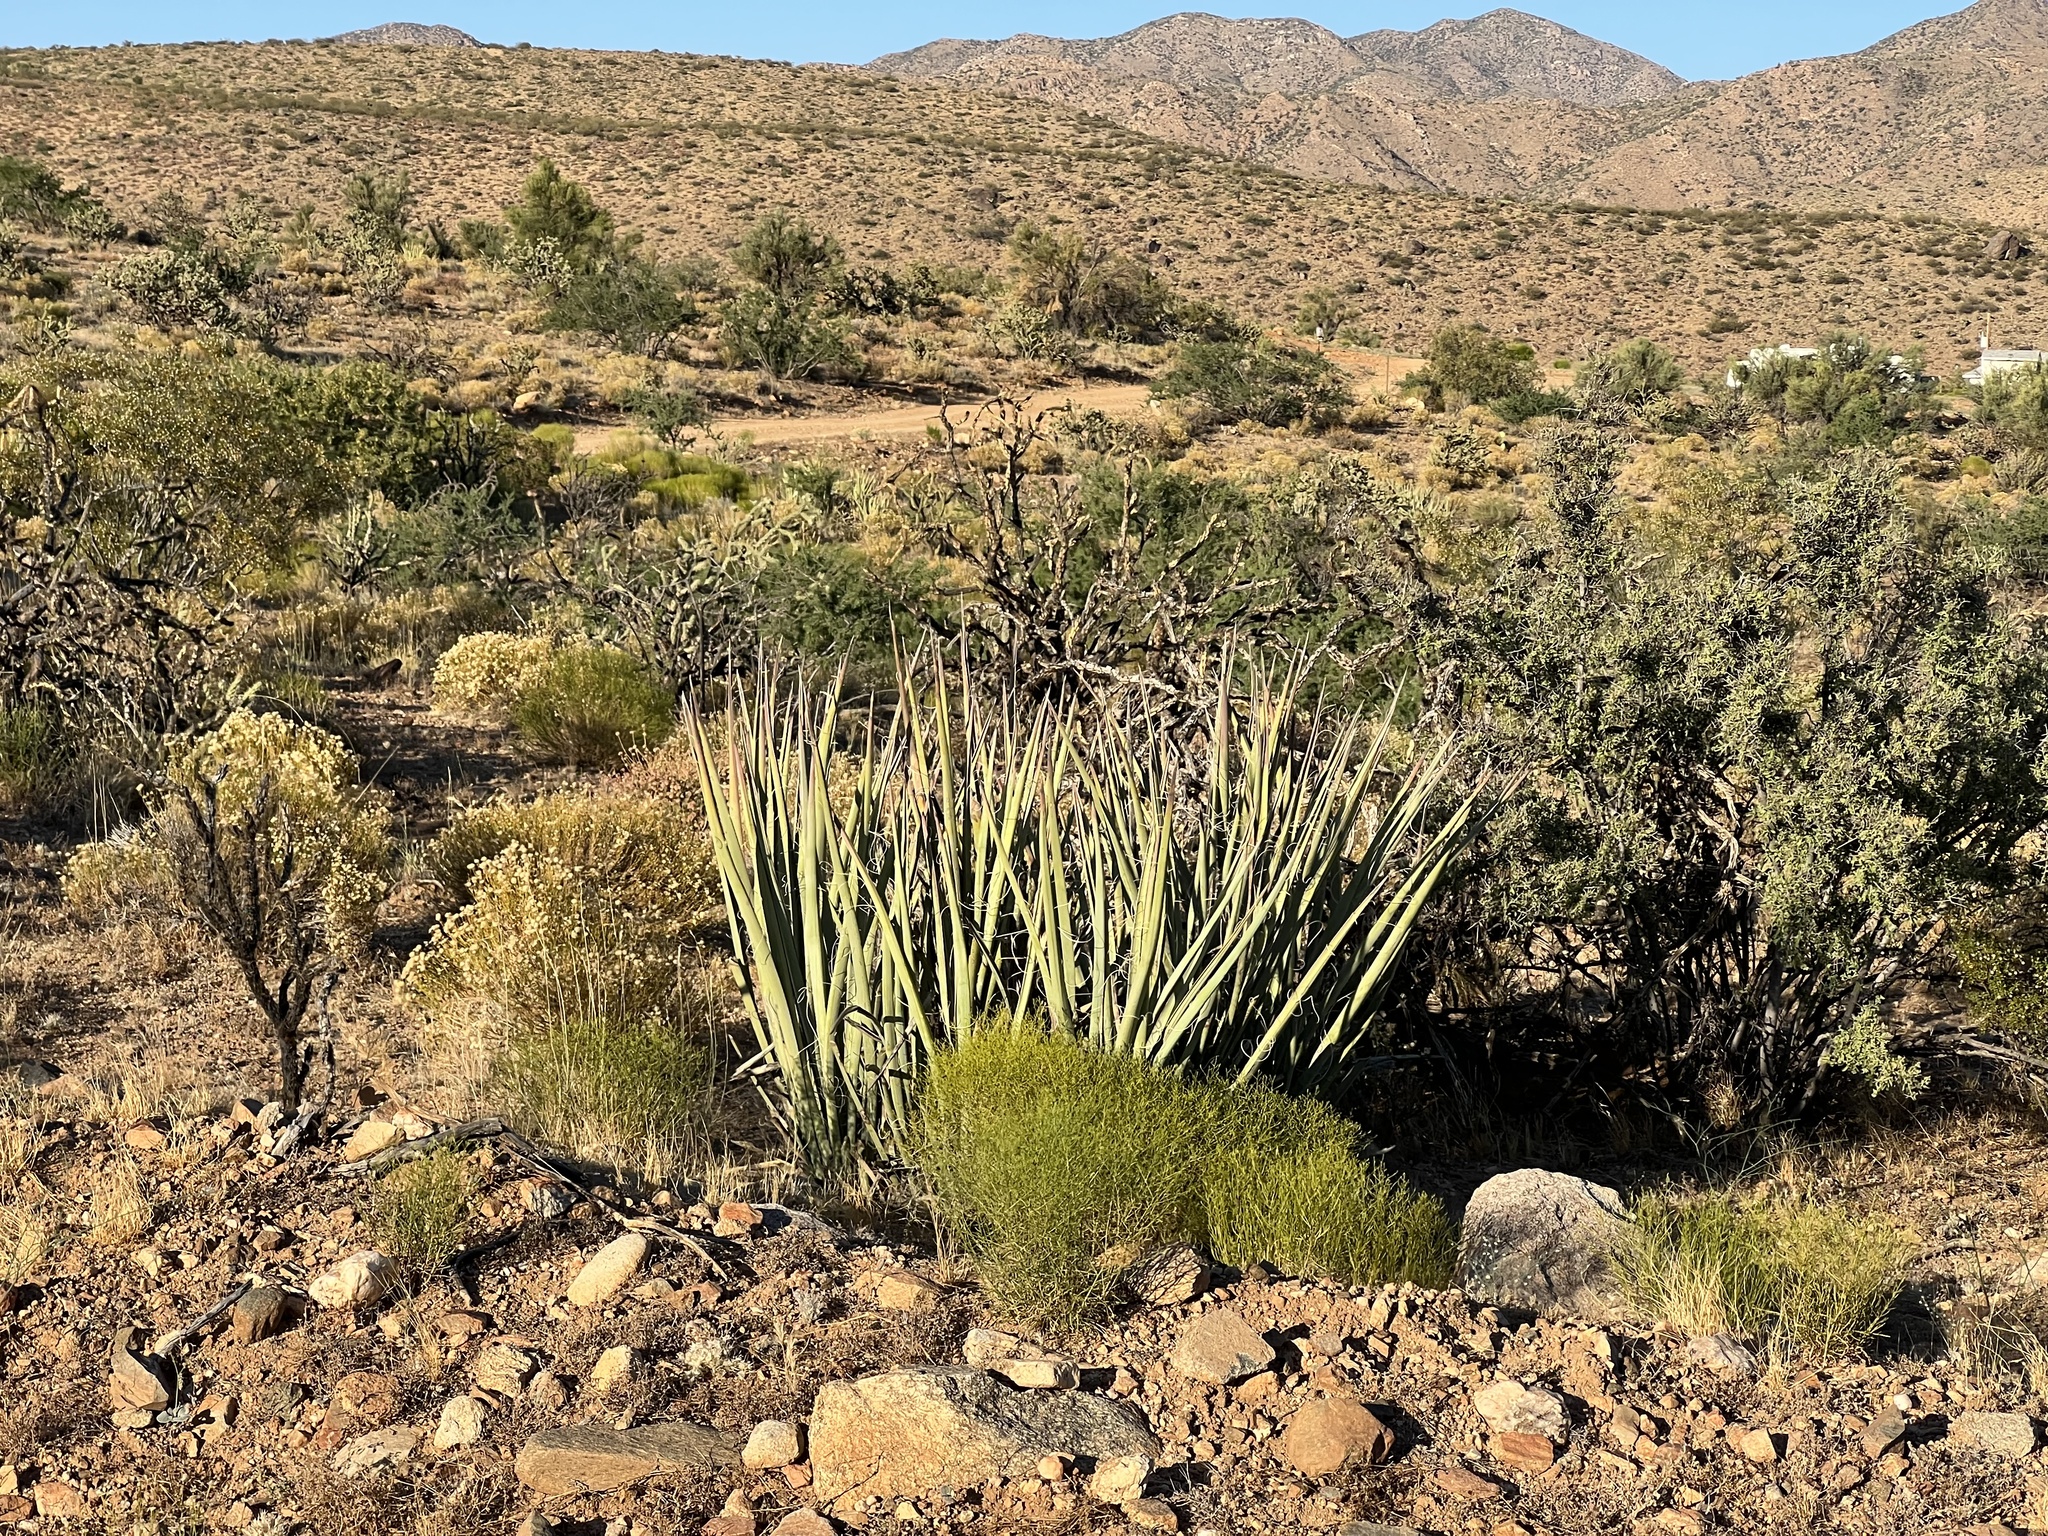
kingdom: Plantae
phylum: Tracheophyta
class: Liliopsida
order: Asparagales
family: Asparagaceae
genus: Yucca
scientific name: Yucca baccata
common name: Banana yucca
